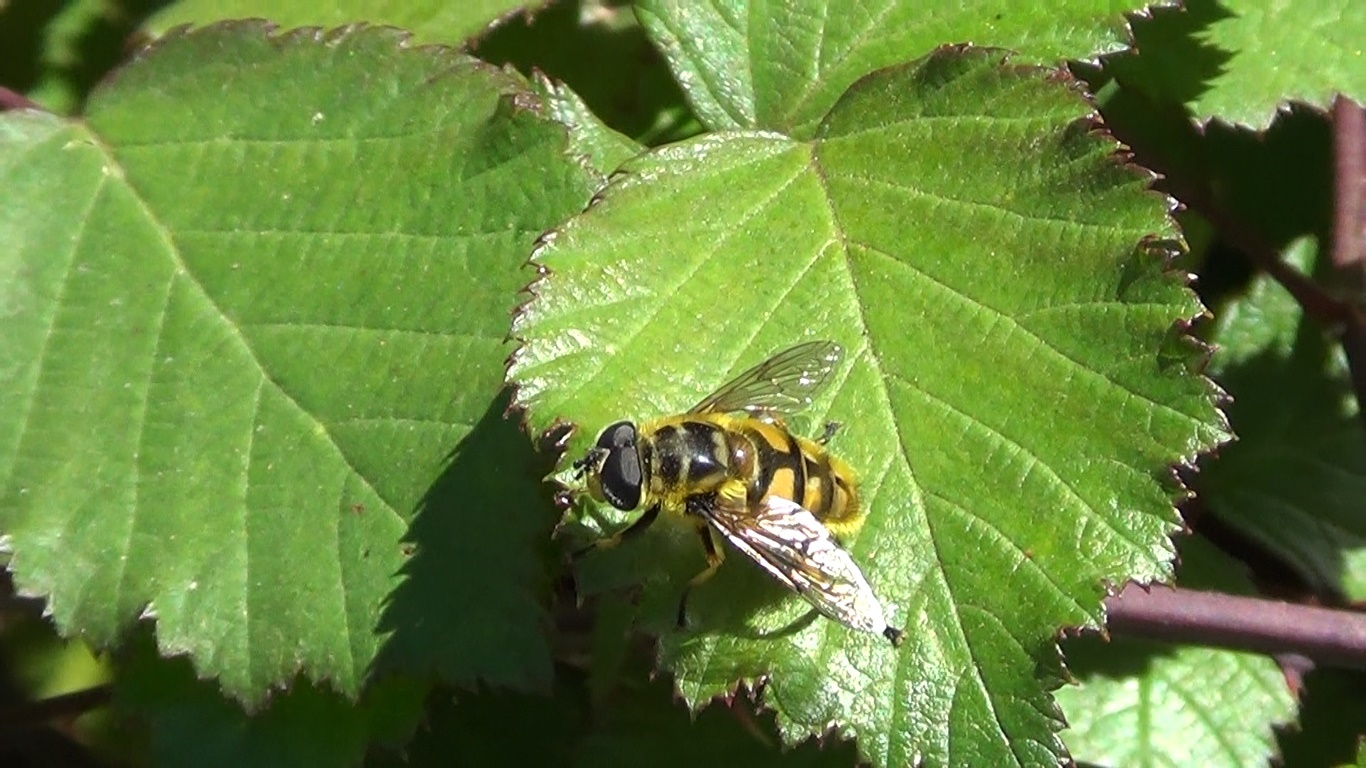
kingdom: Animalia
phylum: Arthropoda
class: Insecta
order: Diptera
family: Syrphidae
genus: Myathropa
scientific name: Myathropa florea
